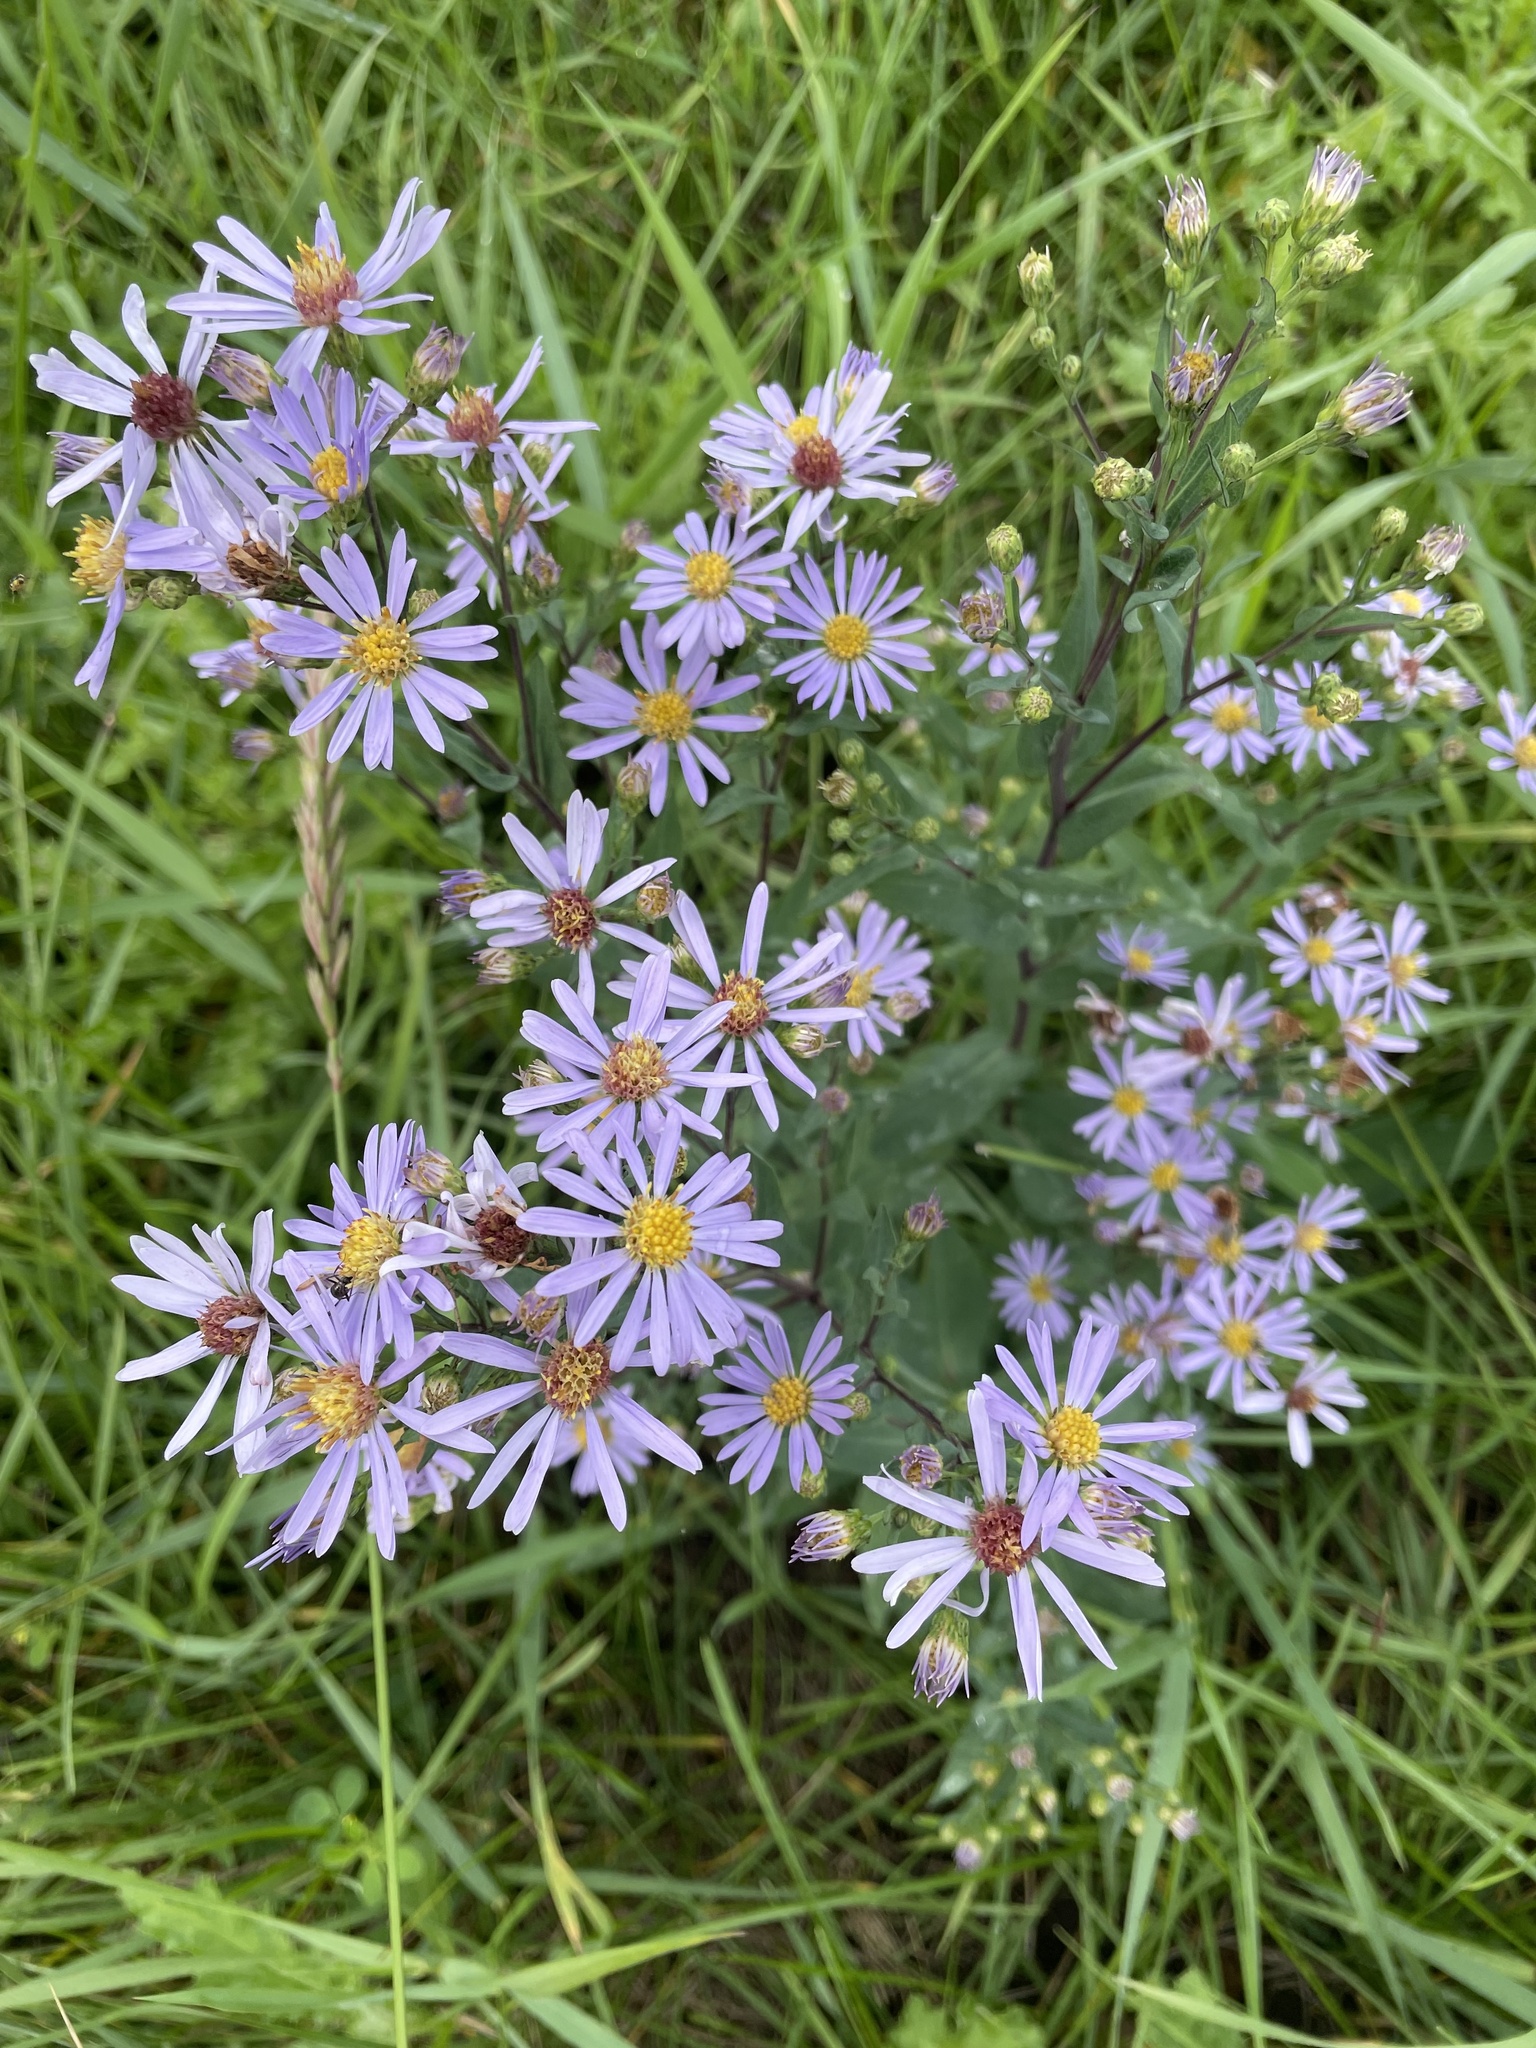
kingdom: Plantae
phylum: Tracheophyta
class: Magnoliopsida
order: Asterales
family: Asteraceae
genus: Symphyotrichum
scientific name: Symphyotrichum laeve
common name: Glaucous aster
